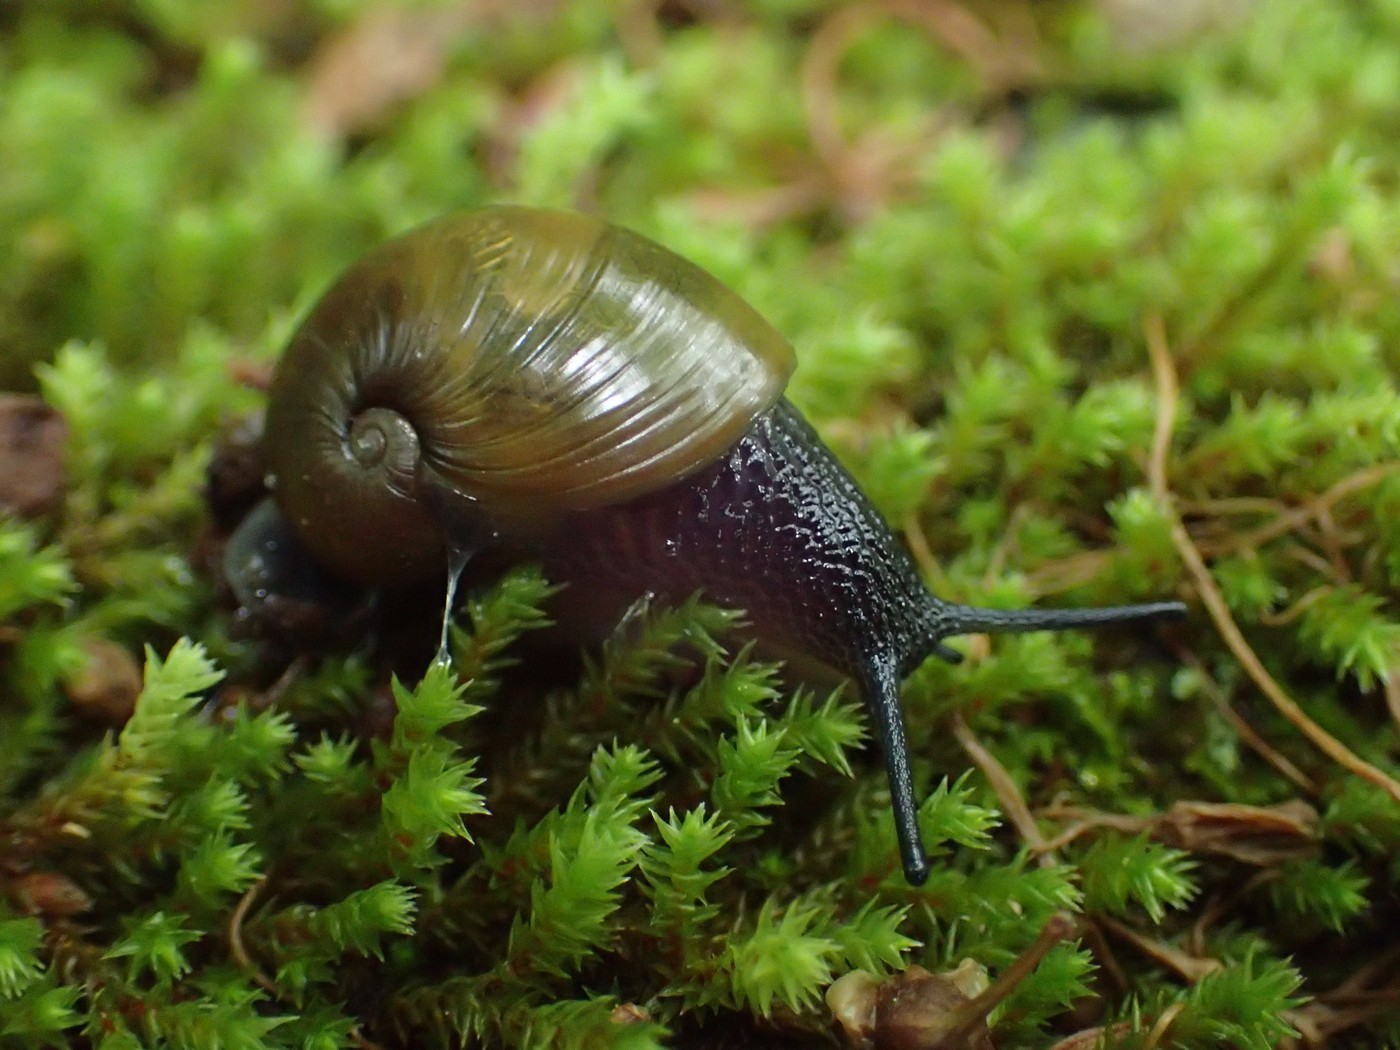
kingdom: Animalia
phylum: Mollusca
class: Gastropoda
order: Stylommatophora
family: Gastrodontidae
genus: Vitrinizonites
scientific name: Vitrinizonites latissimus
